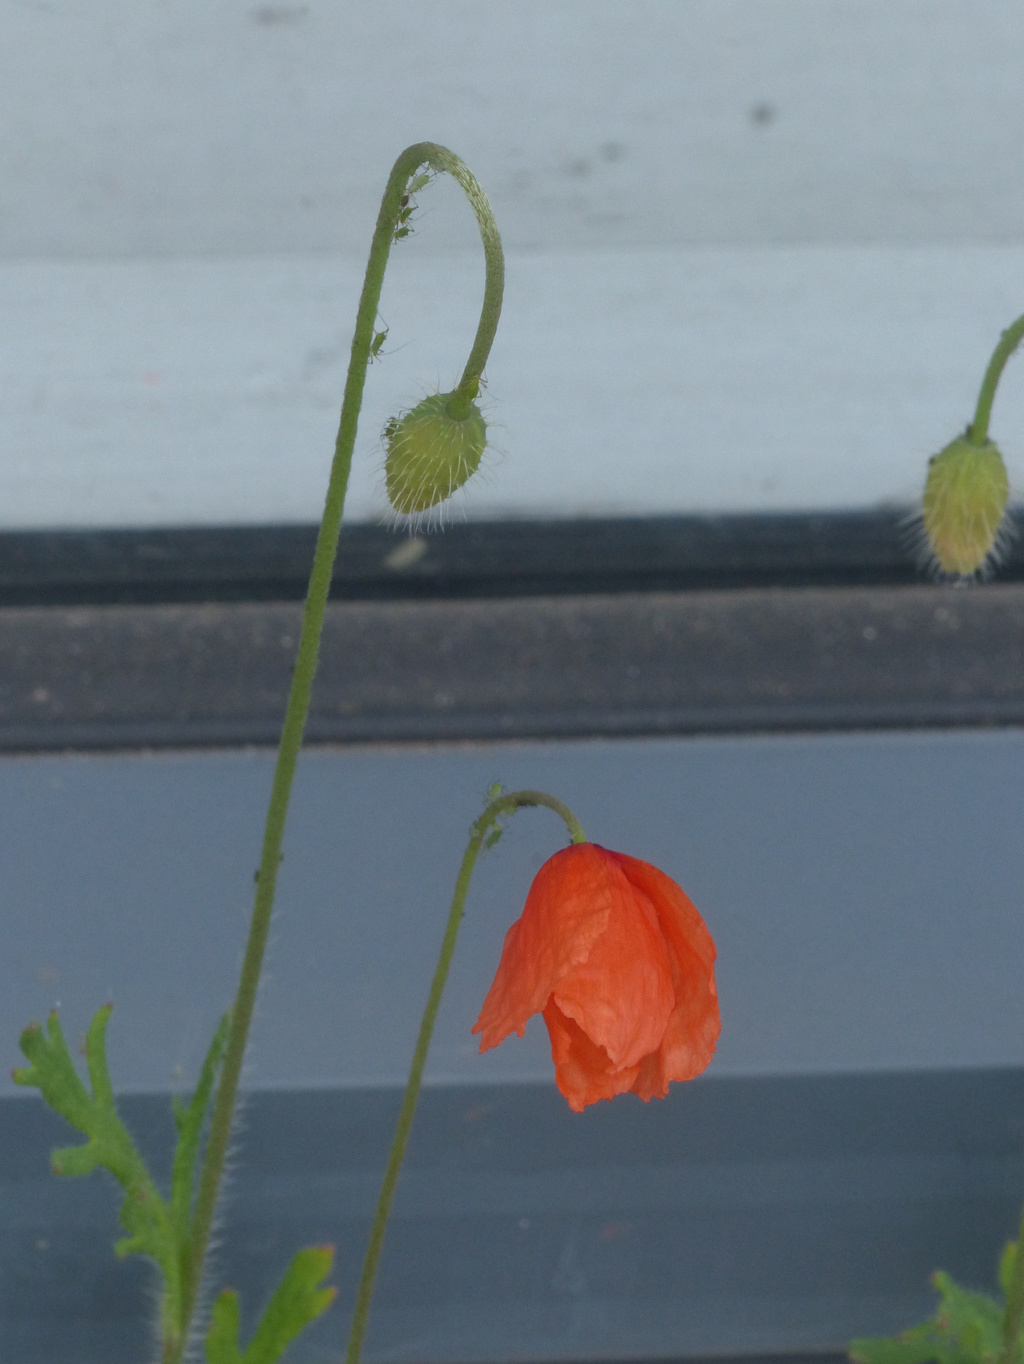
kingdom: Plantae
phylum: Tracheophyta
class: Magnoliopsida
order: Ranunculales
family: Papaveraceae
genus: Papaver
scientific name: Papaver dubium
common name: Long-headed poppy
